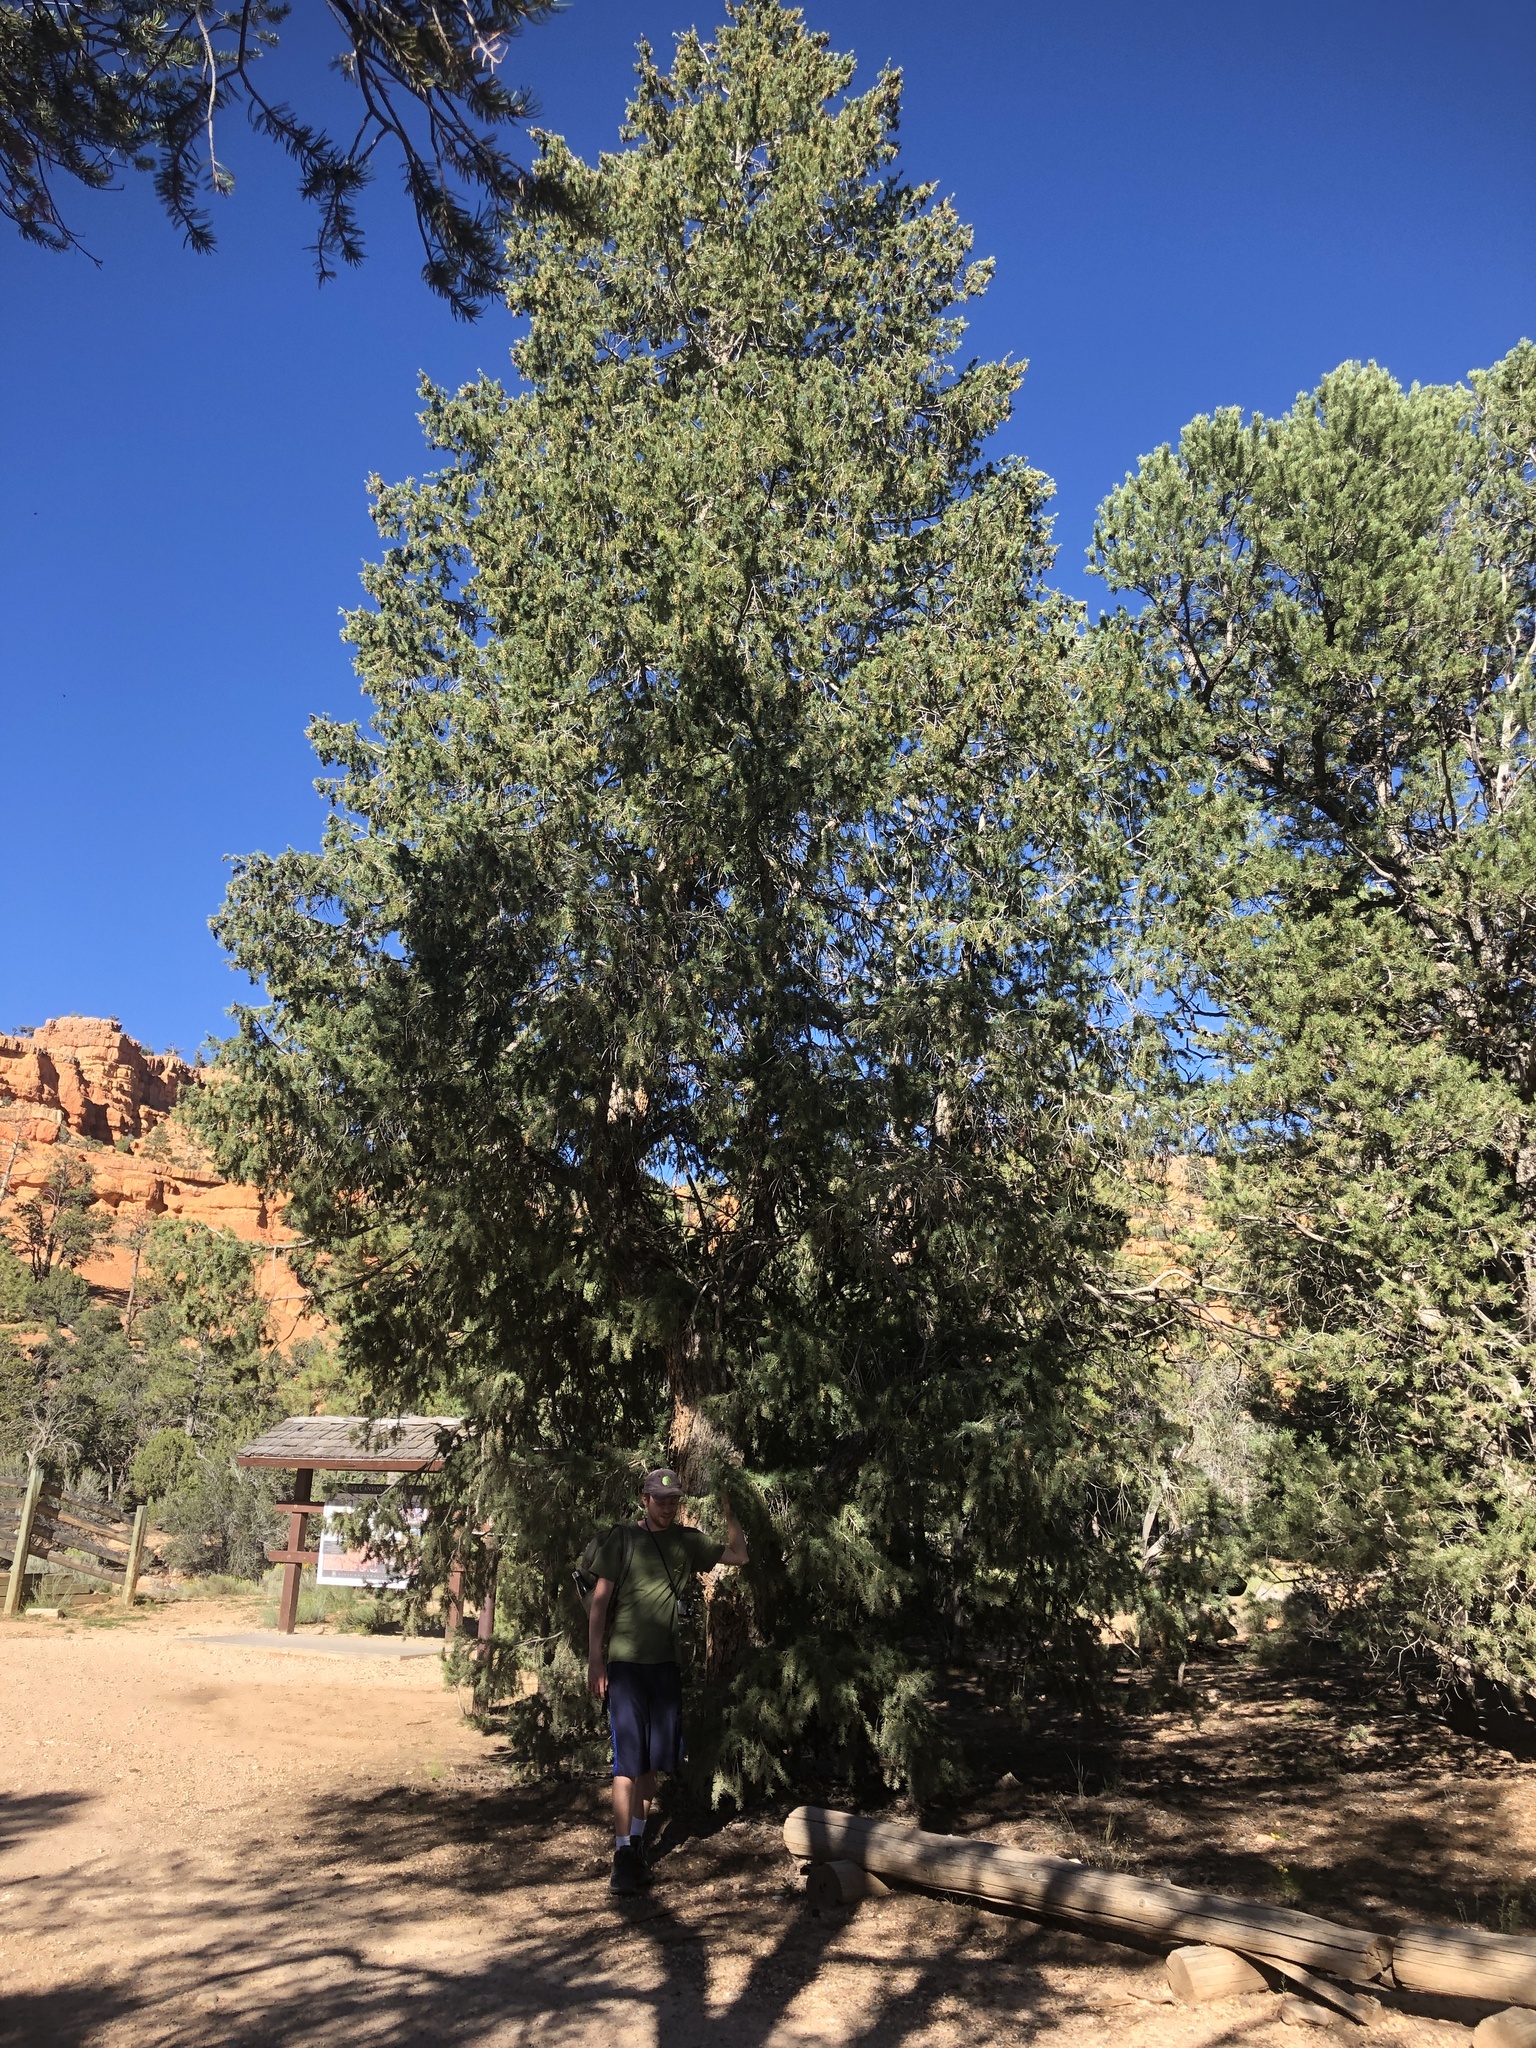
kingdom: Plantae
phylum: Tracheophyta
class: Pinopsida
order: Pinales
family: Pinaceae
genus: Pseudotsuga
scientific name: Pseudotsuga menziesii
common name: Douglas fir
